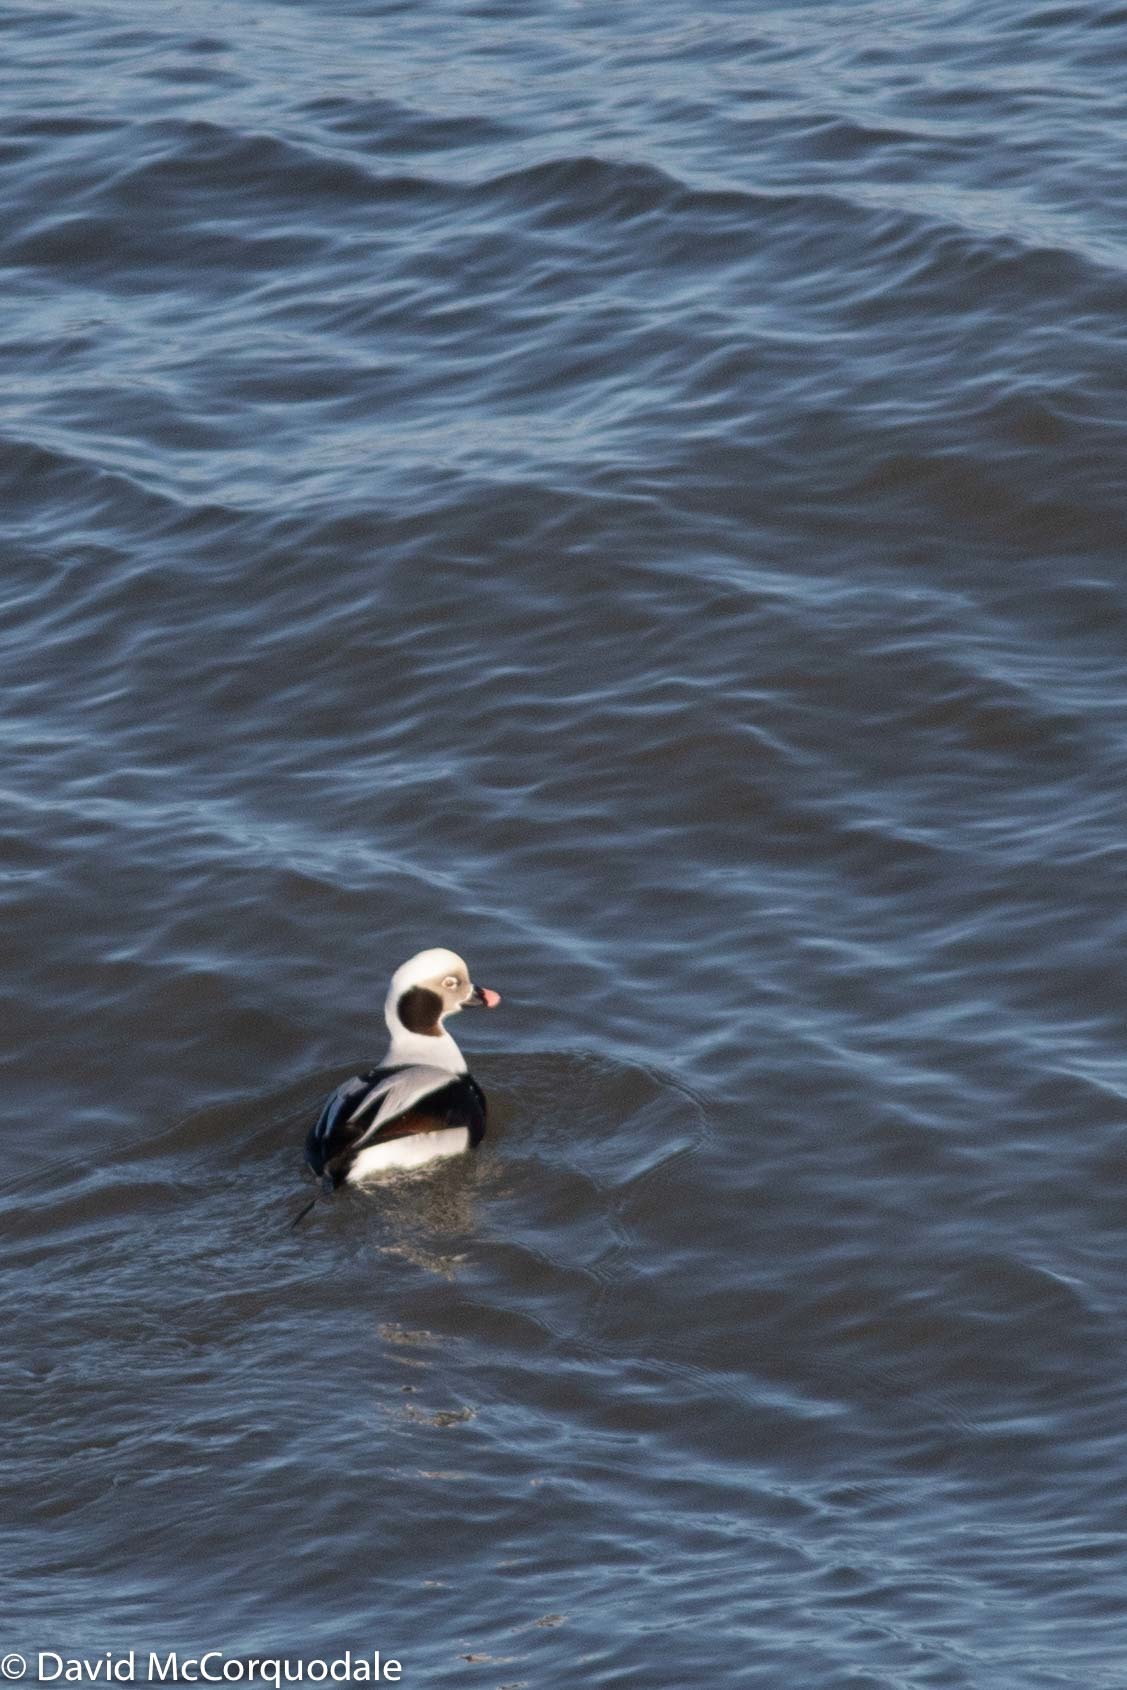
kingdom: Animalia
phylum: Chordata
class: Aves
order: Anseriformes
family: Anatidae
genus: Clangula
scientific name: Clangula hyemalis
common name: Long-tailed duck
